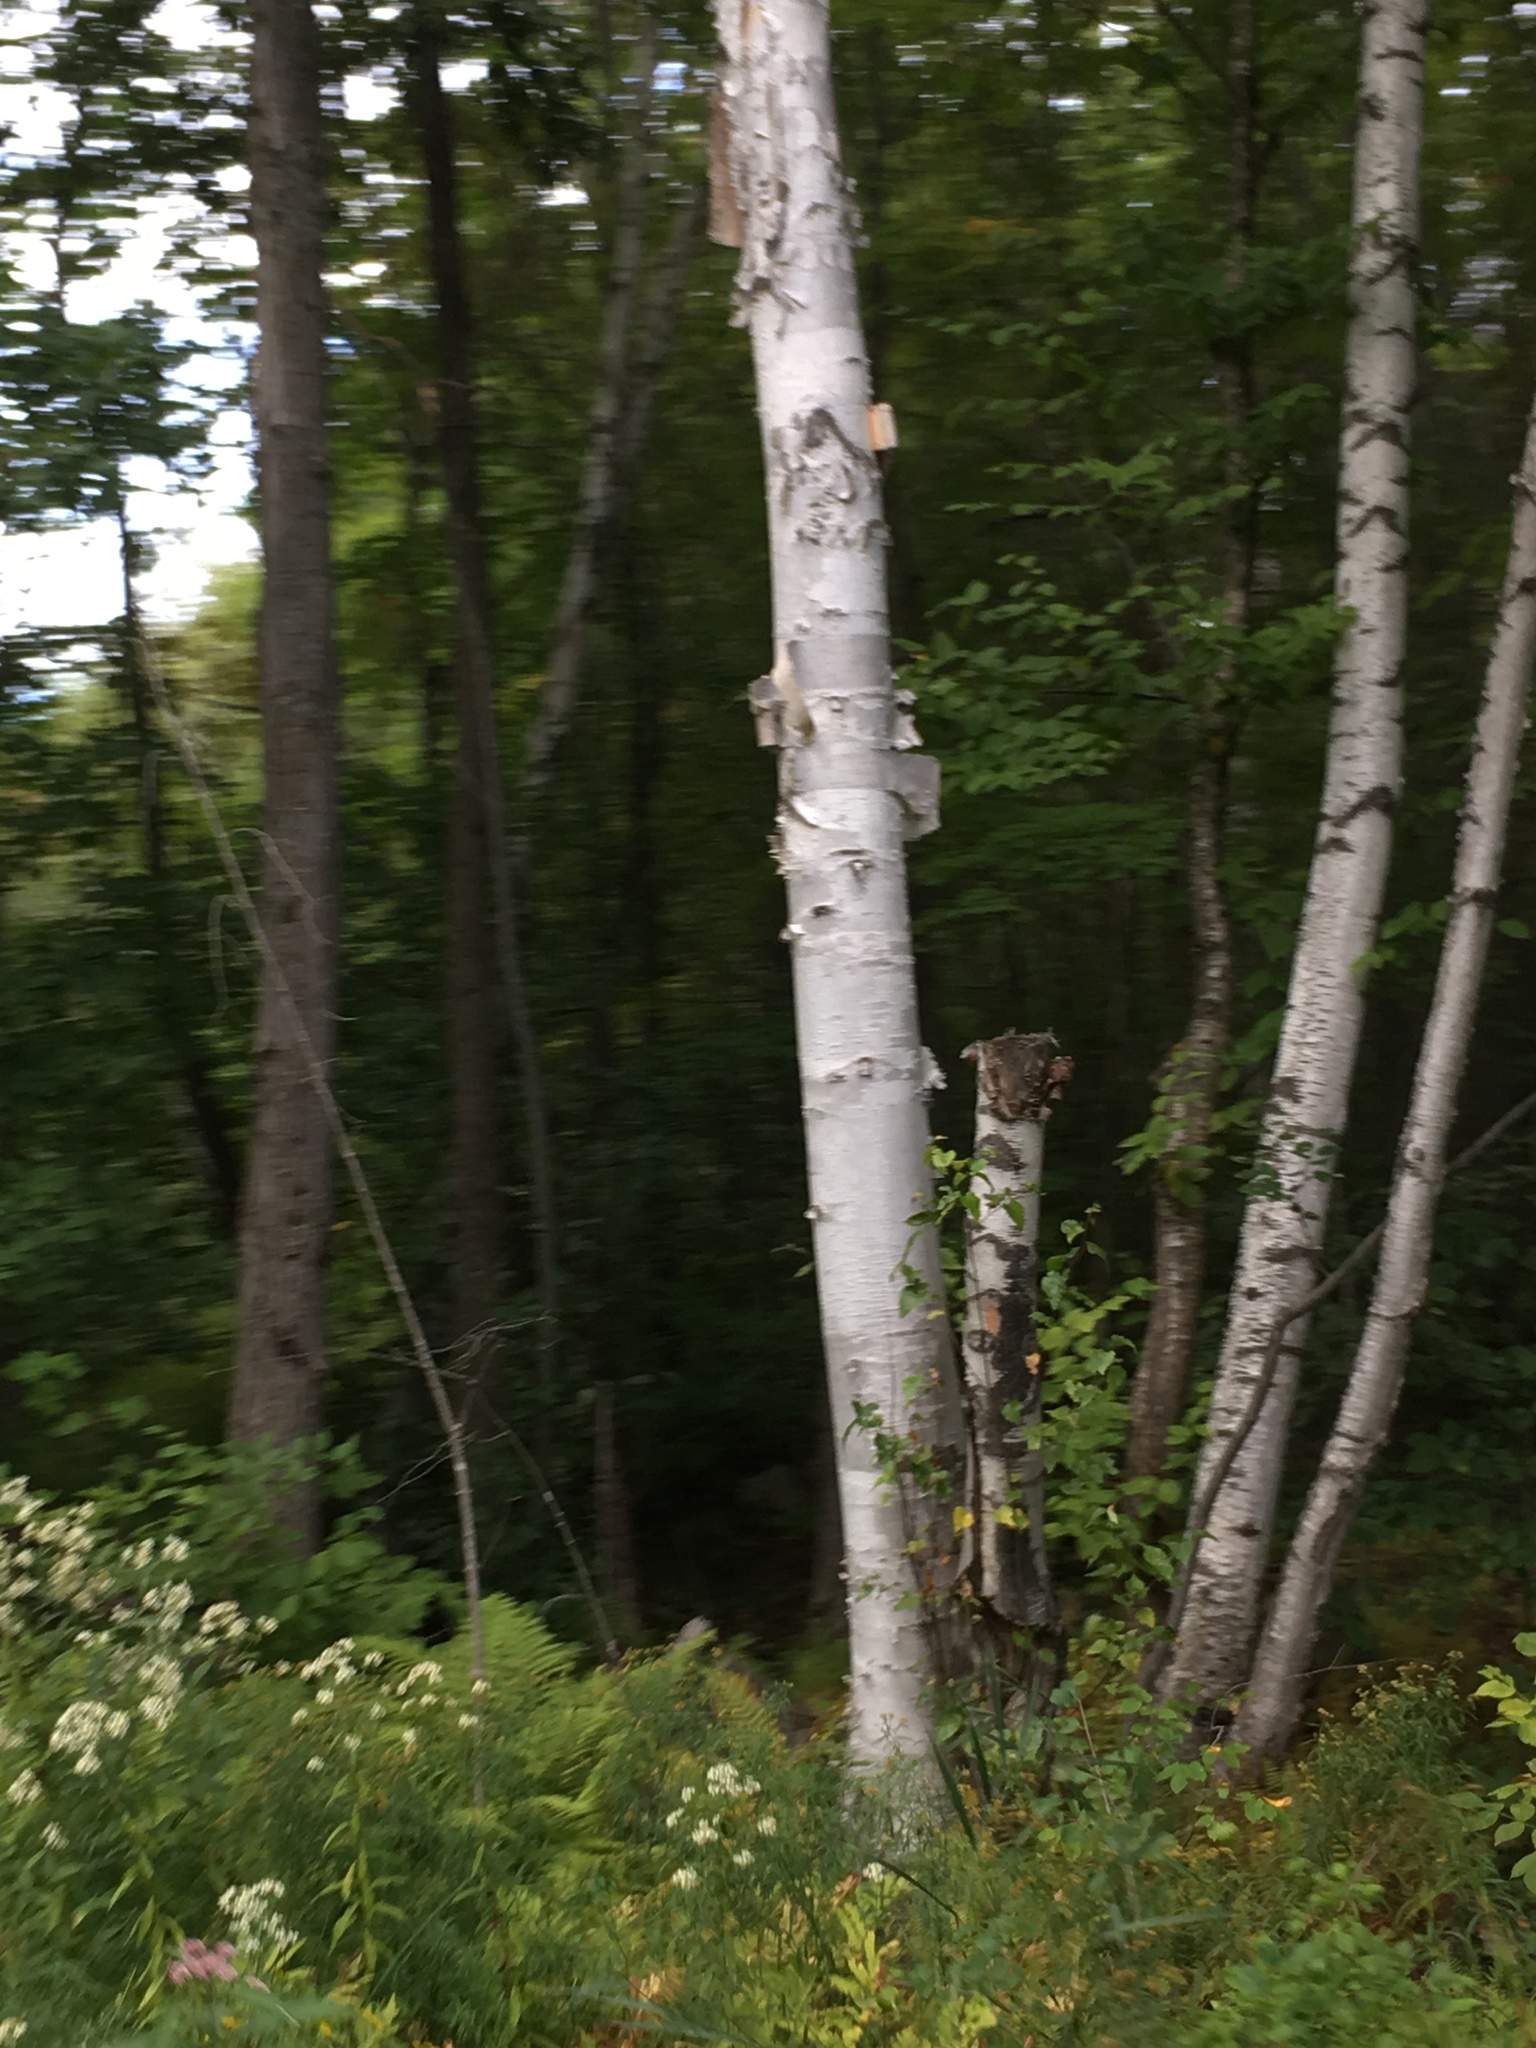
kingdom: Plantae
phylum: Tracheophyta
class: Magnoliopsida
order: Fagales
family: Betulaceae
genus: Betula
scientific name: Betula papyrifera
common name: Paper birch
